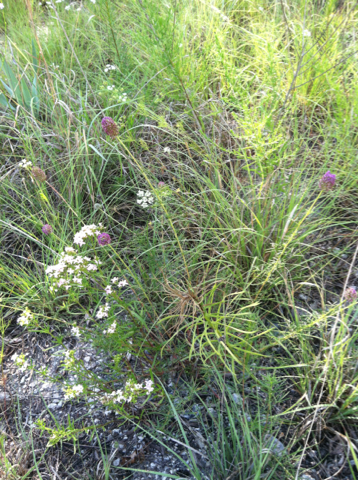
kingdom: Plantae
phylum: Tracheophyta
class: Magnoliopsida
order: Fabales
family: Fabaceae
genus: Dalea
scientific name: Dalea compacta
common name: Compact prairie-clover
